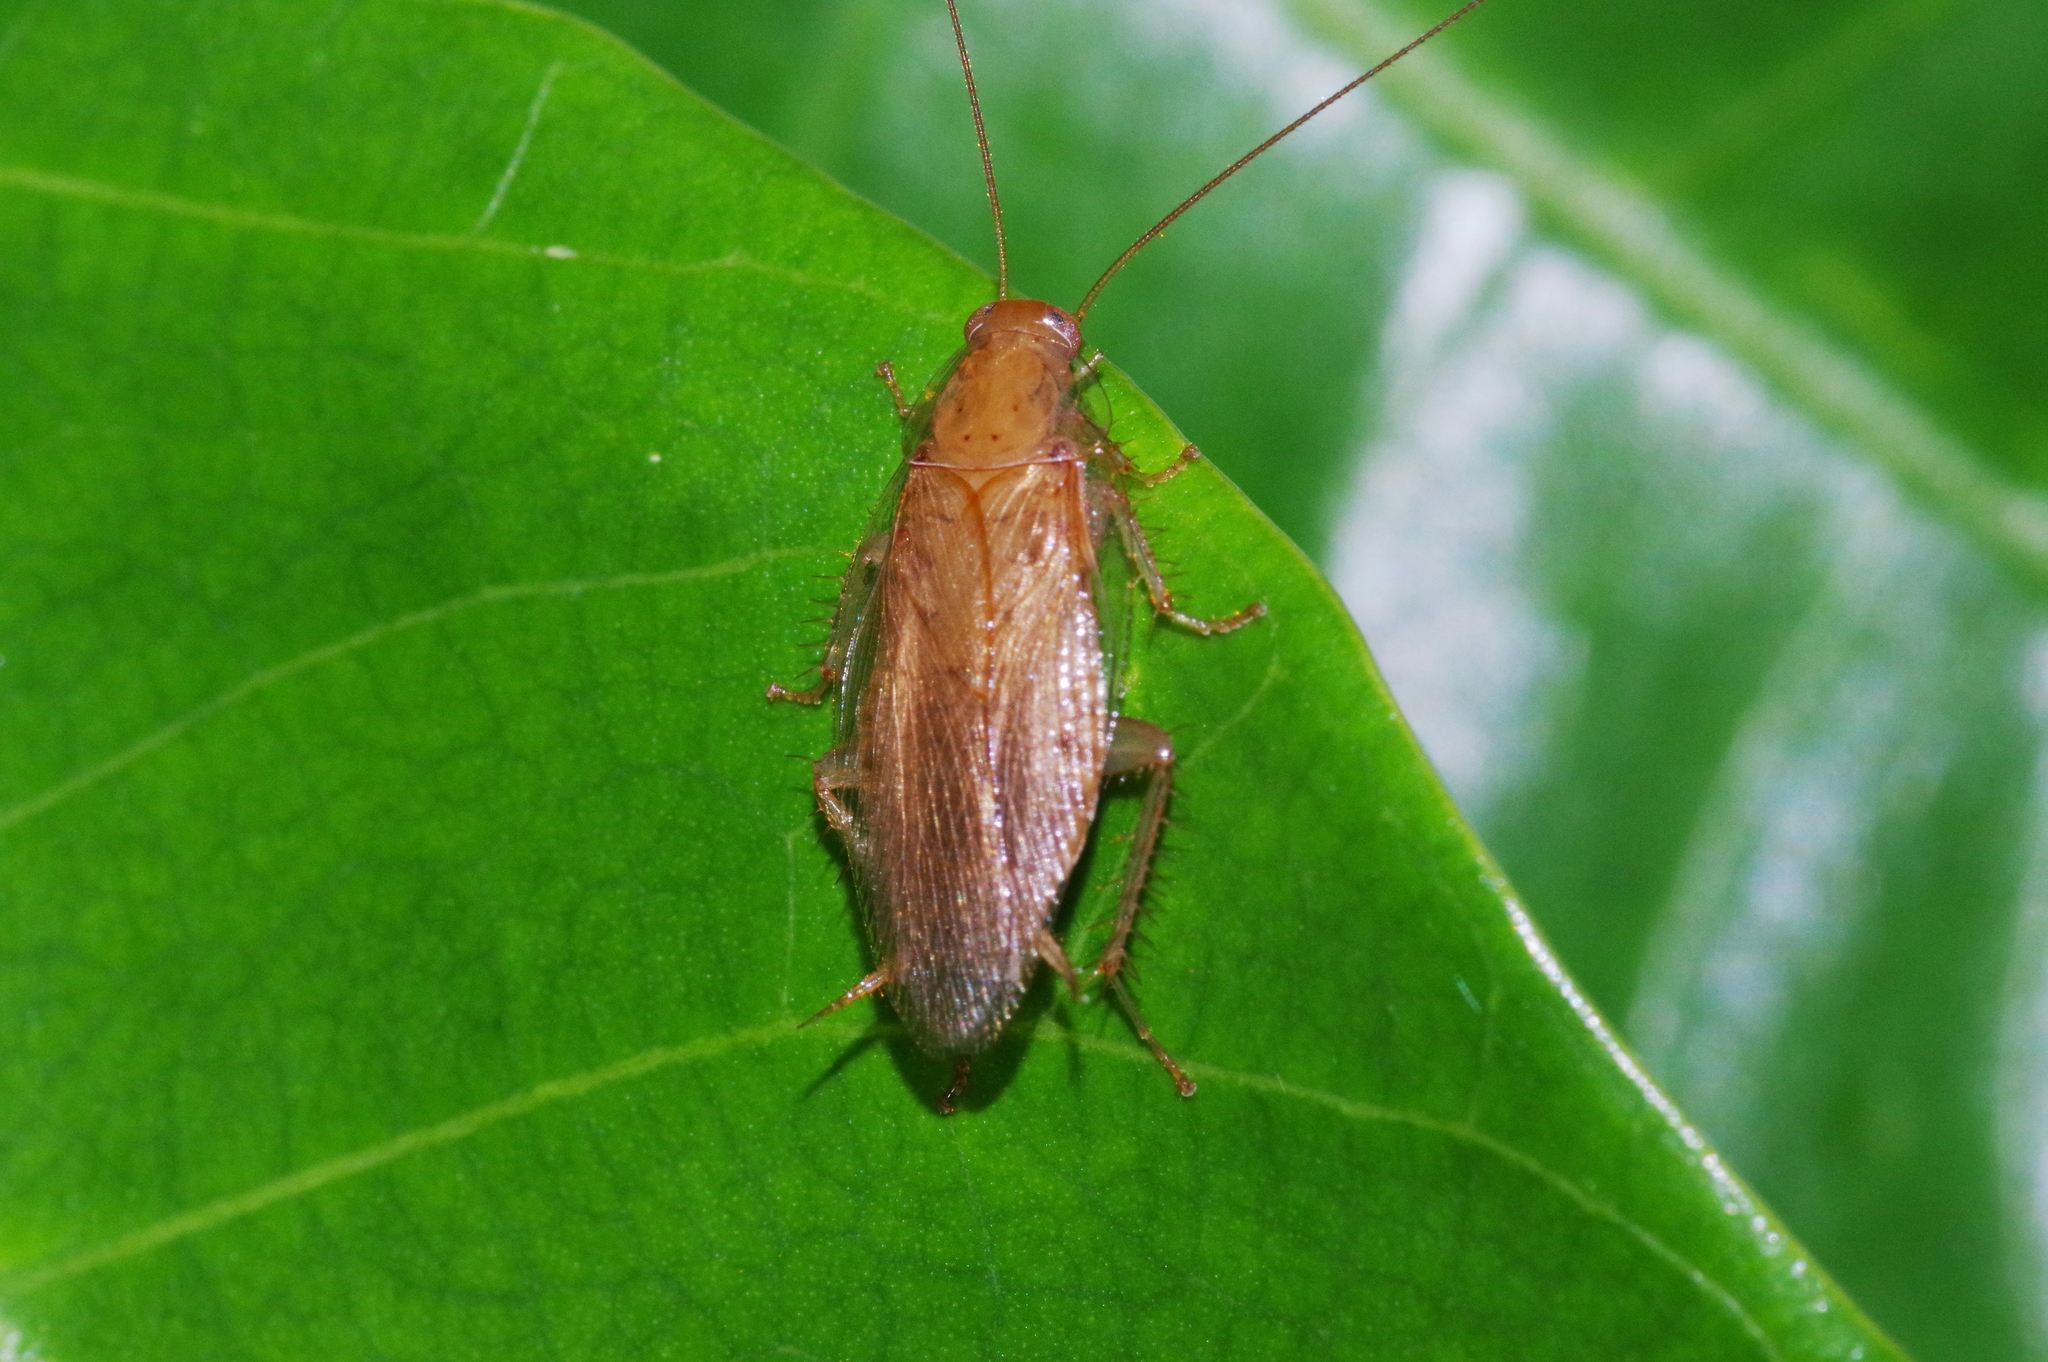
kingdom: Animalia
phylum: Arthropoda
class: Insecta
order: Blattodea
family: Ectobiidae
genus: Megamareta
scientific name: Megamareta pallidiola
